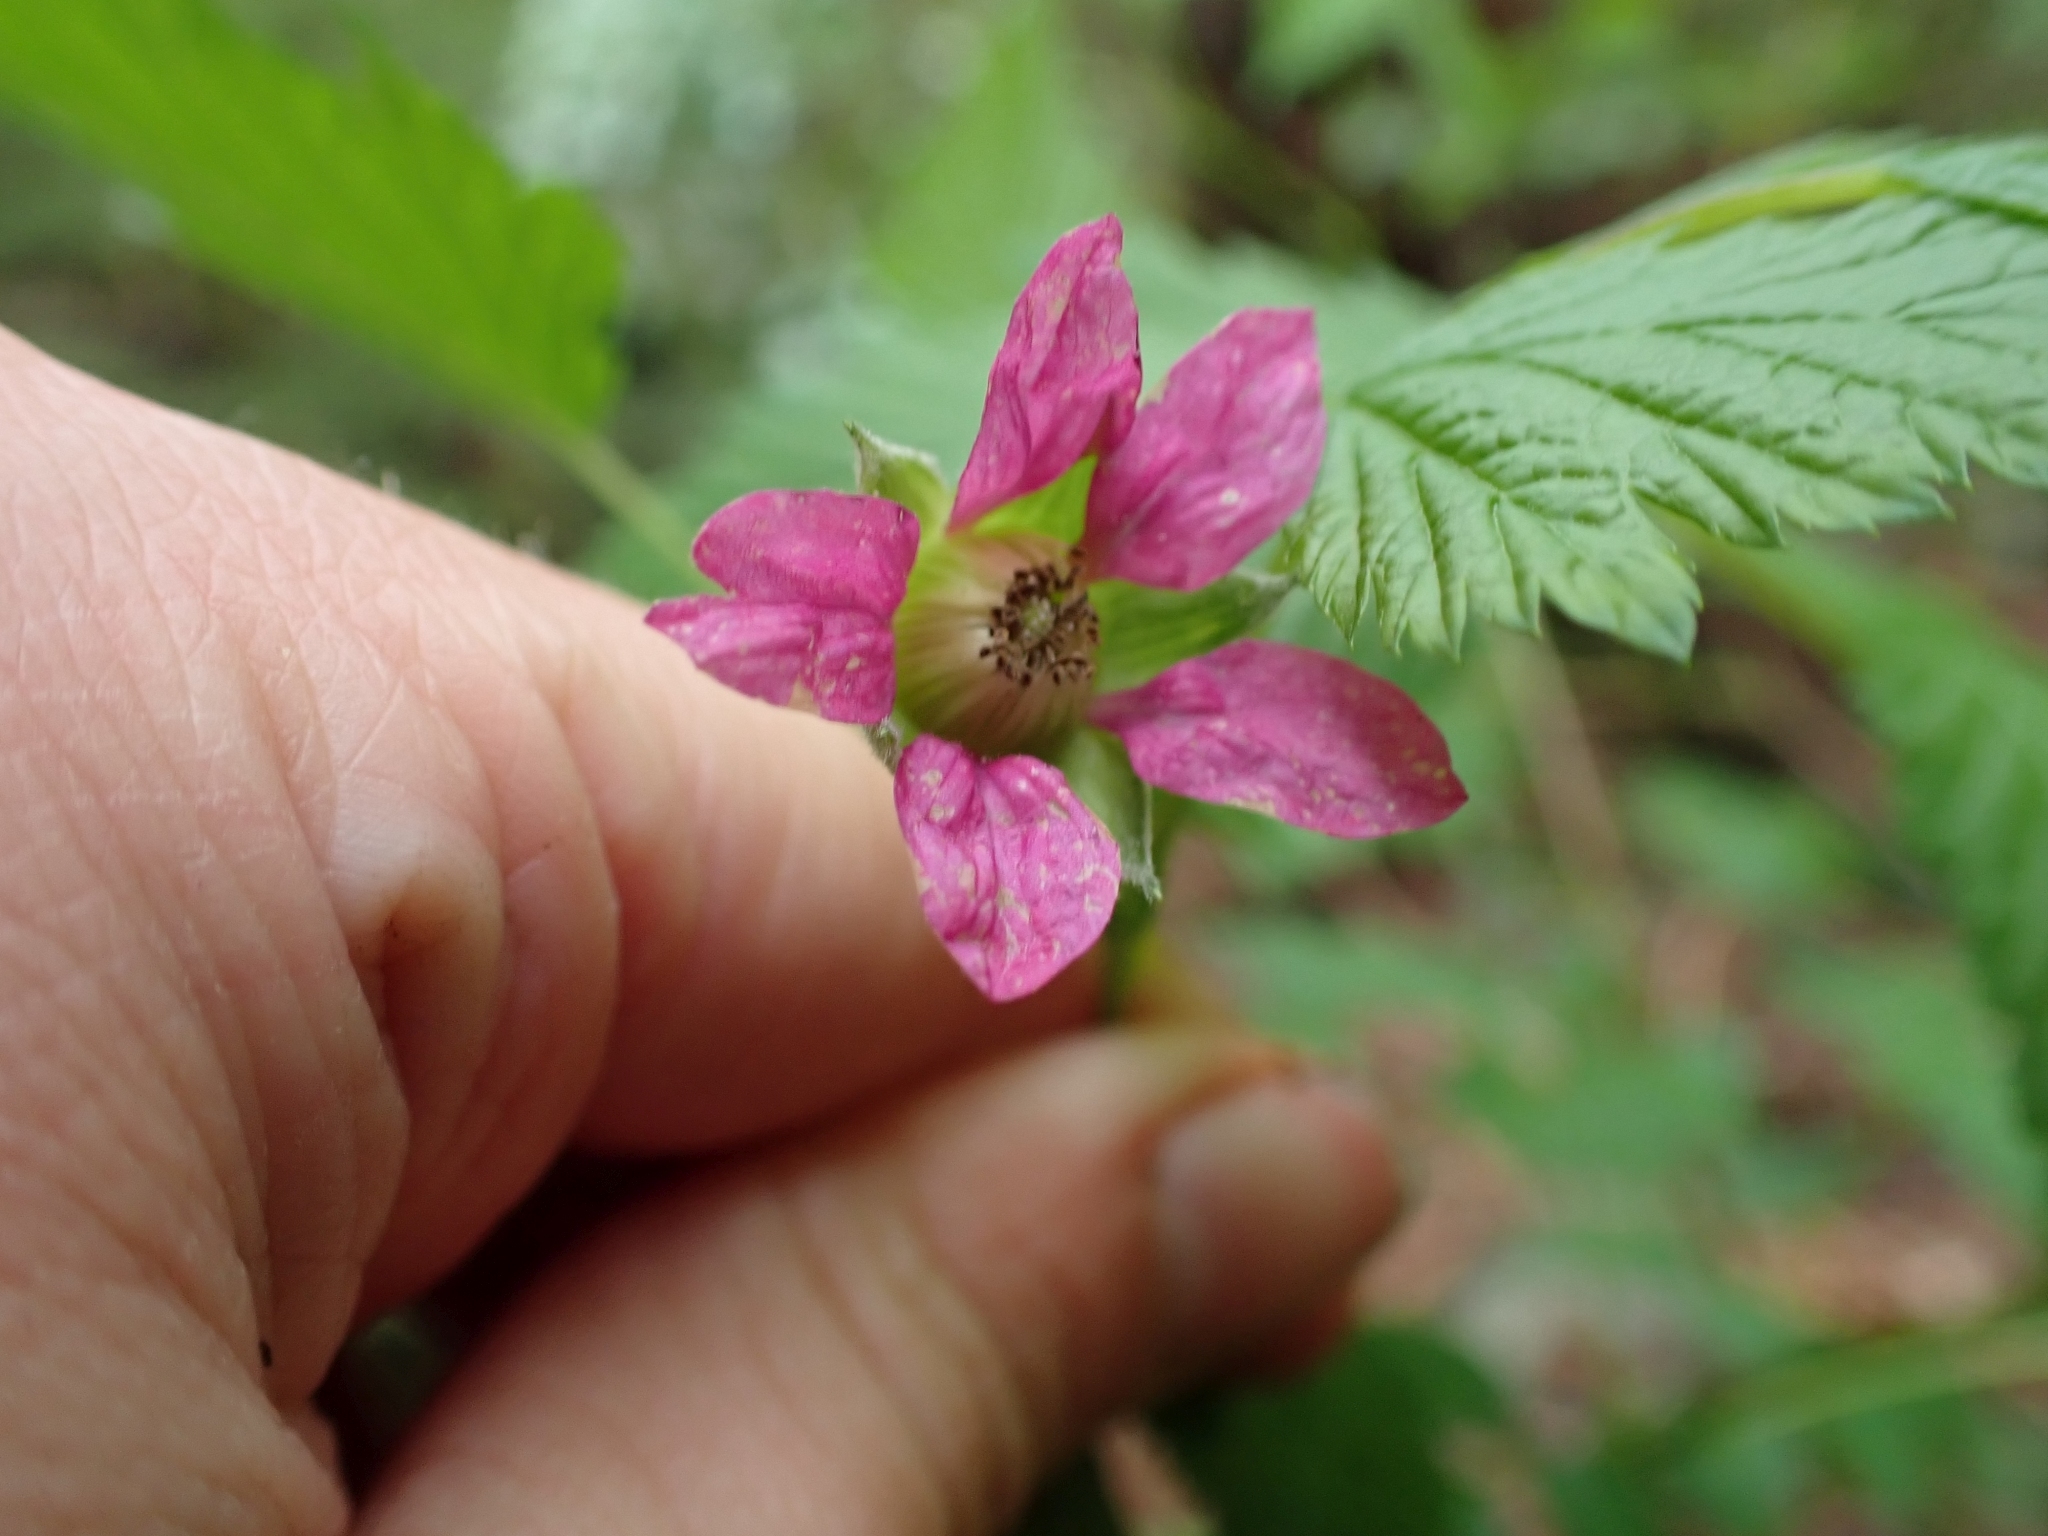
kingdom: Plantae
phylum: Tracheophyta
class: Magnoliopsida
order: Rosales
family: Rosaceae
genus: Rubus
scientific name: Rubus spectabilis
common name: Salmonberry
